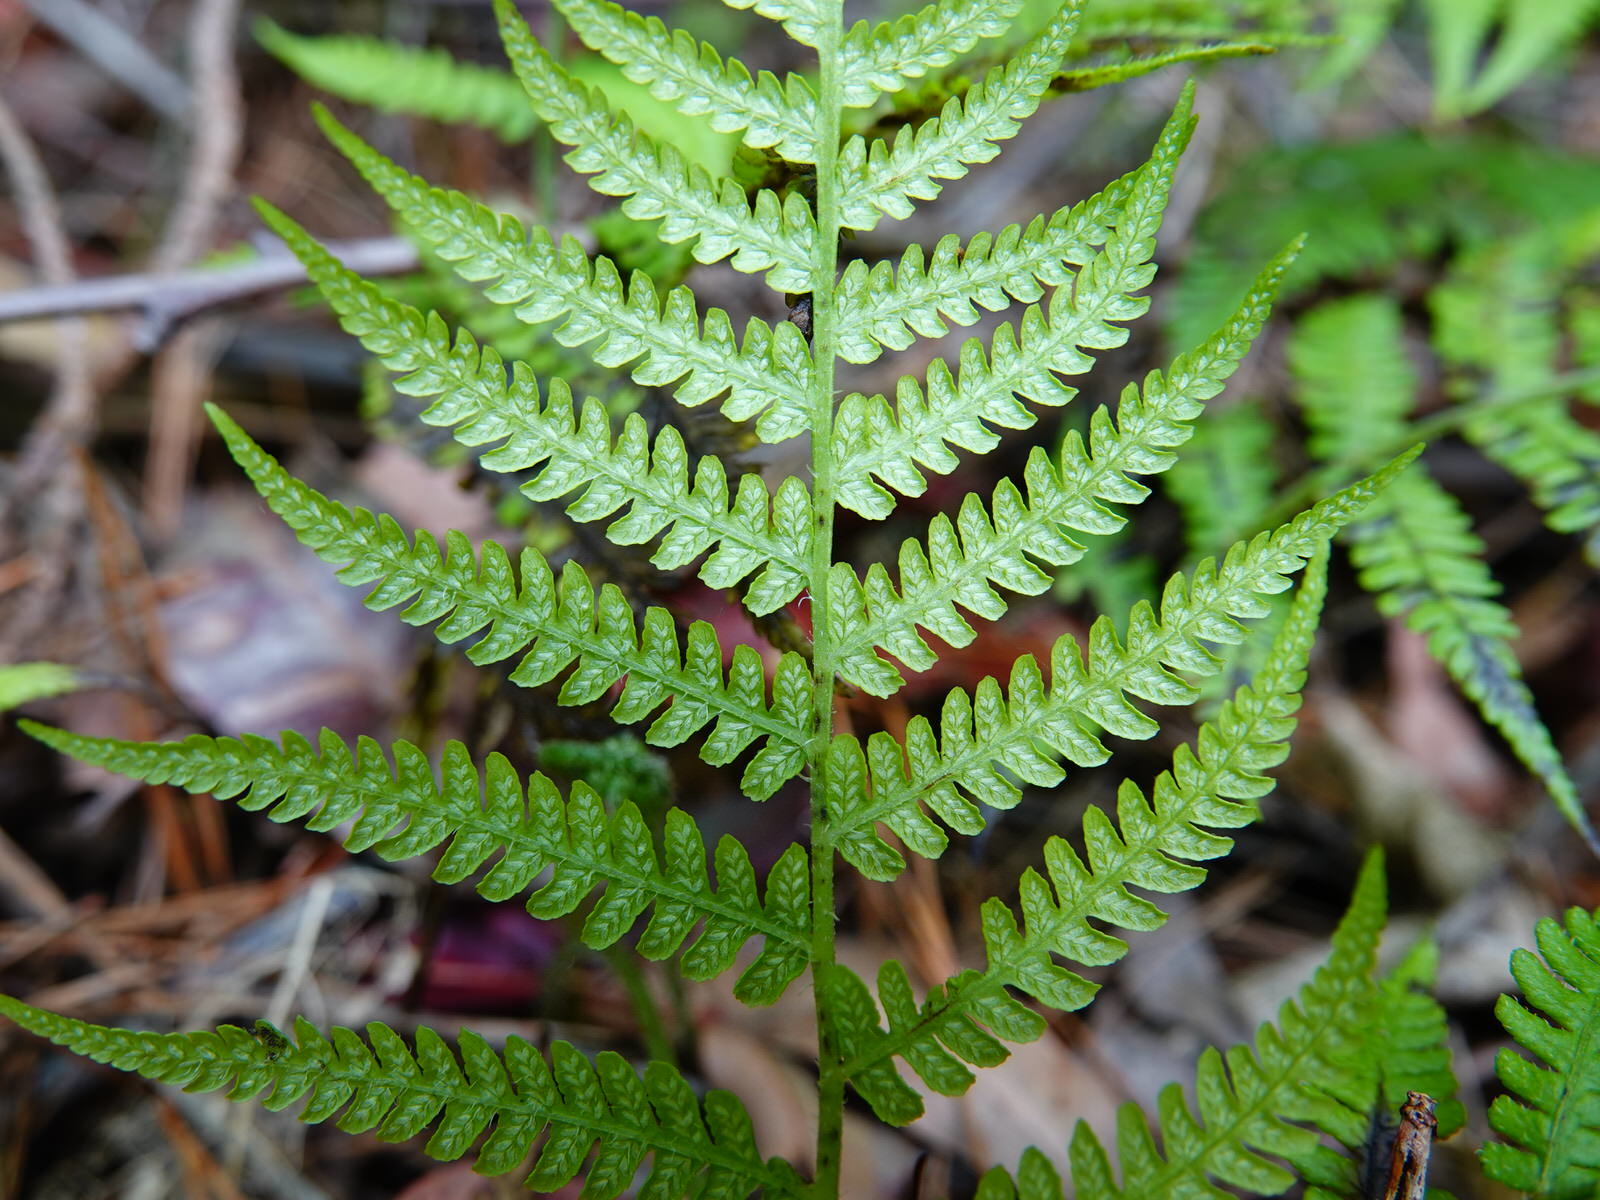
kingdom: Plantae
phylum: Tracheophyta
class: Polypodiopsida
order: Polypodiales
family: Athyriaceae
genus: Diplazium
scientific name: Diplazium congruum
